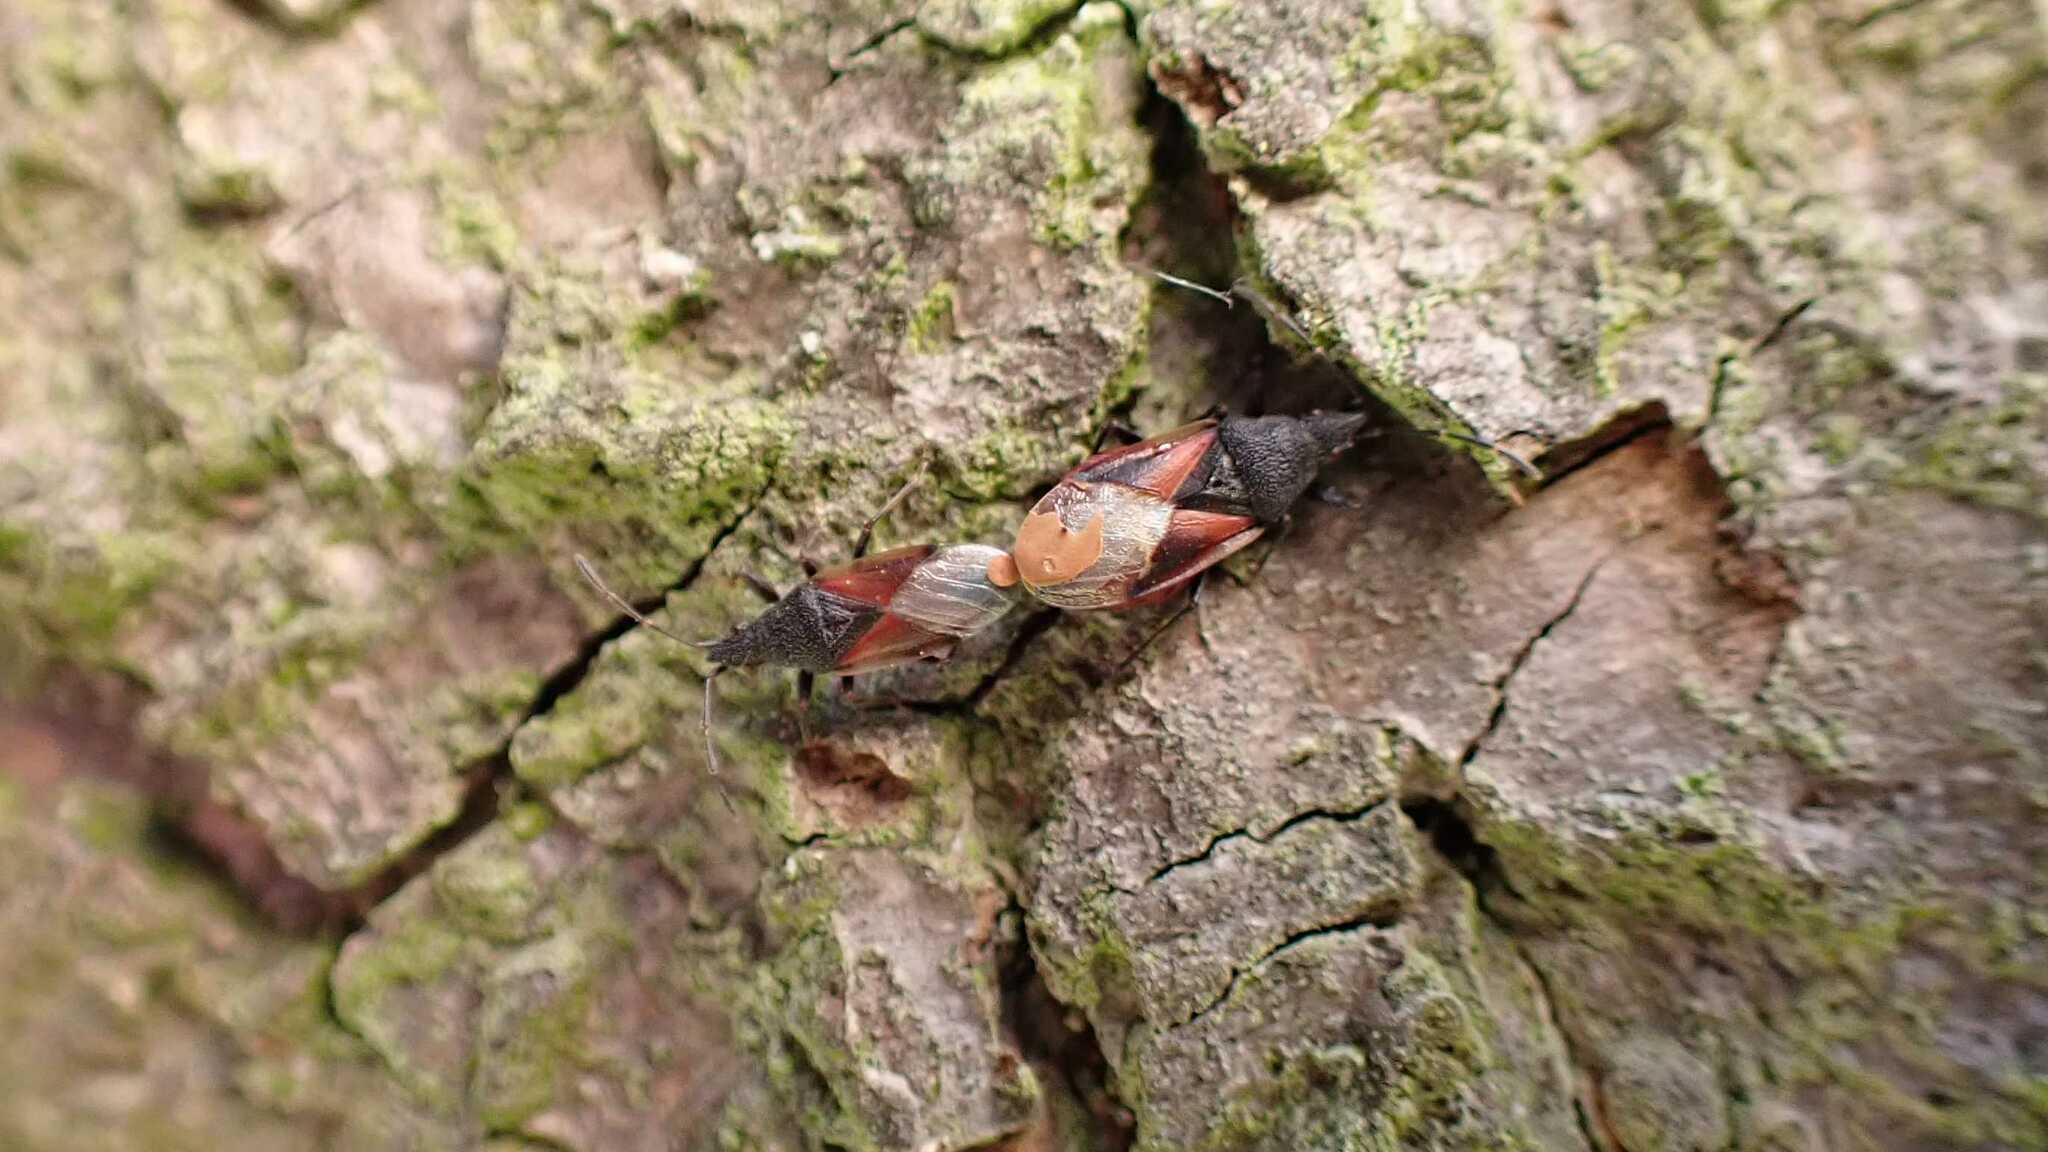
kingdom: Animalia
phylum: Arthropoda
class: Insecta
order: Hemiptera
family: Oxycarenidae
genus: Oxycarenus
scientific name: Oxycarenus lavaterae
